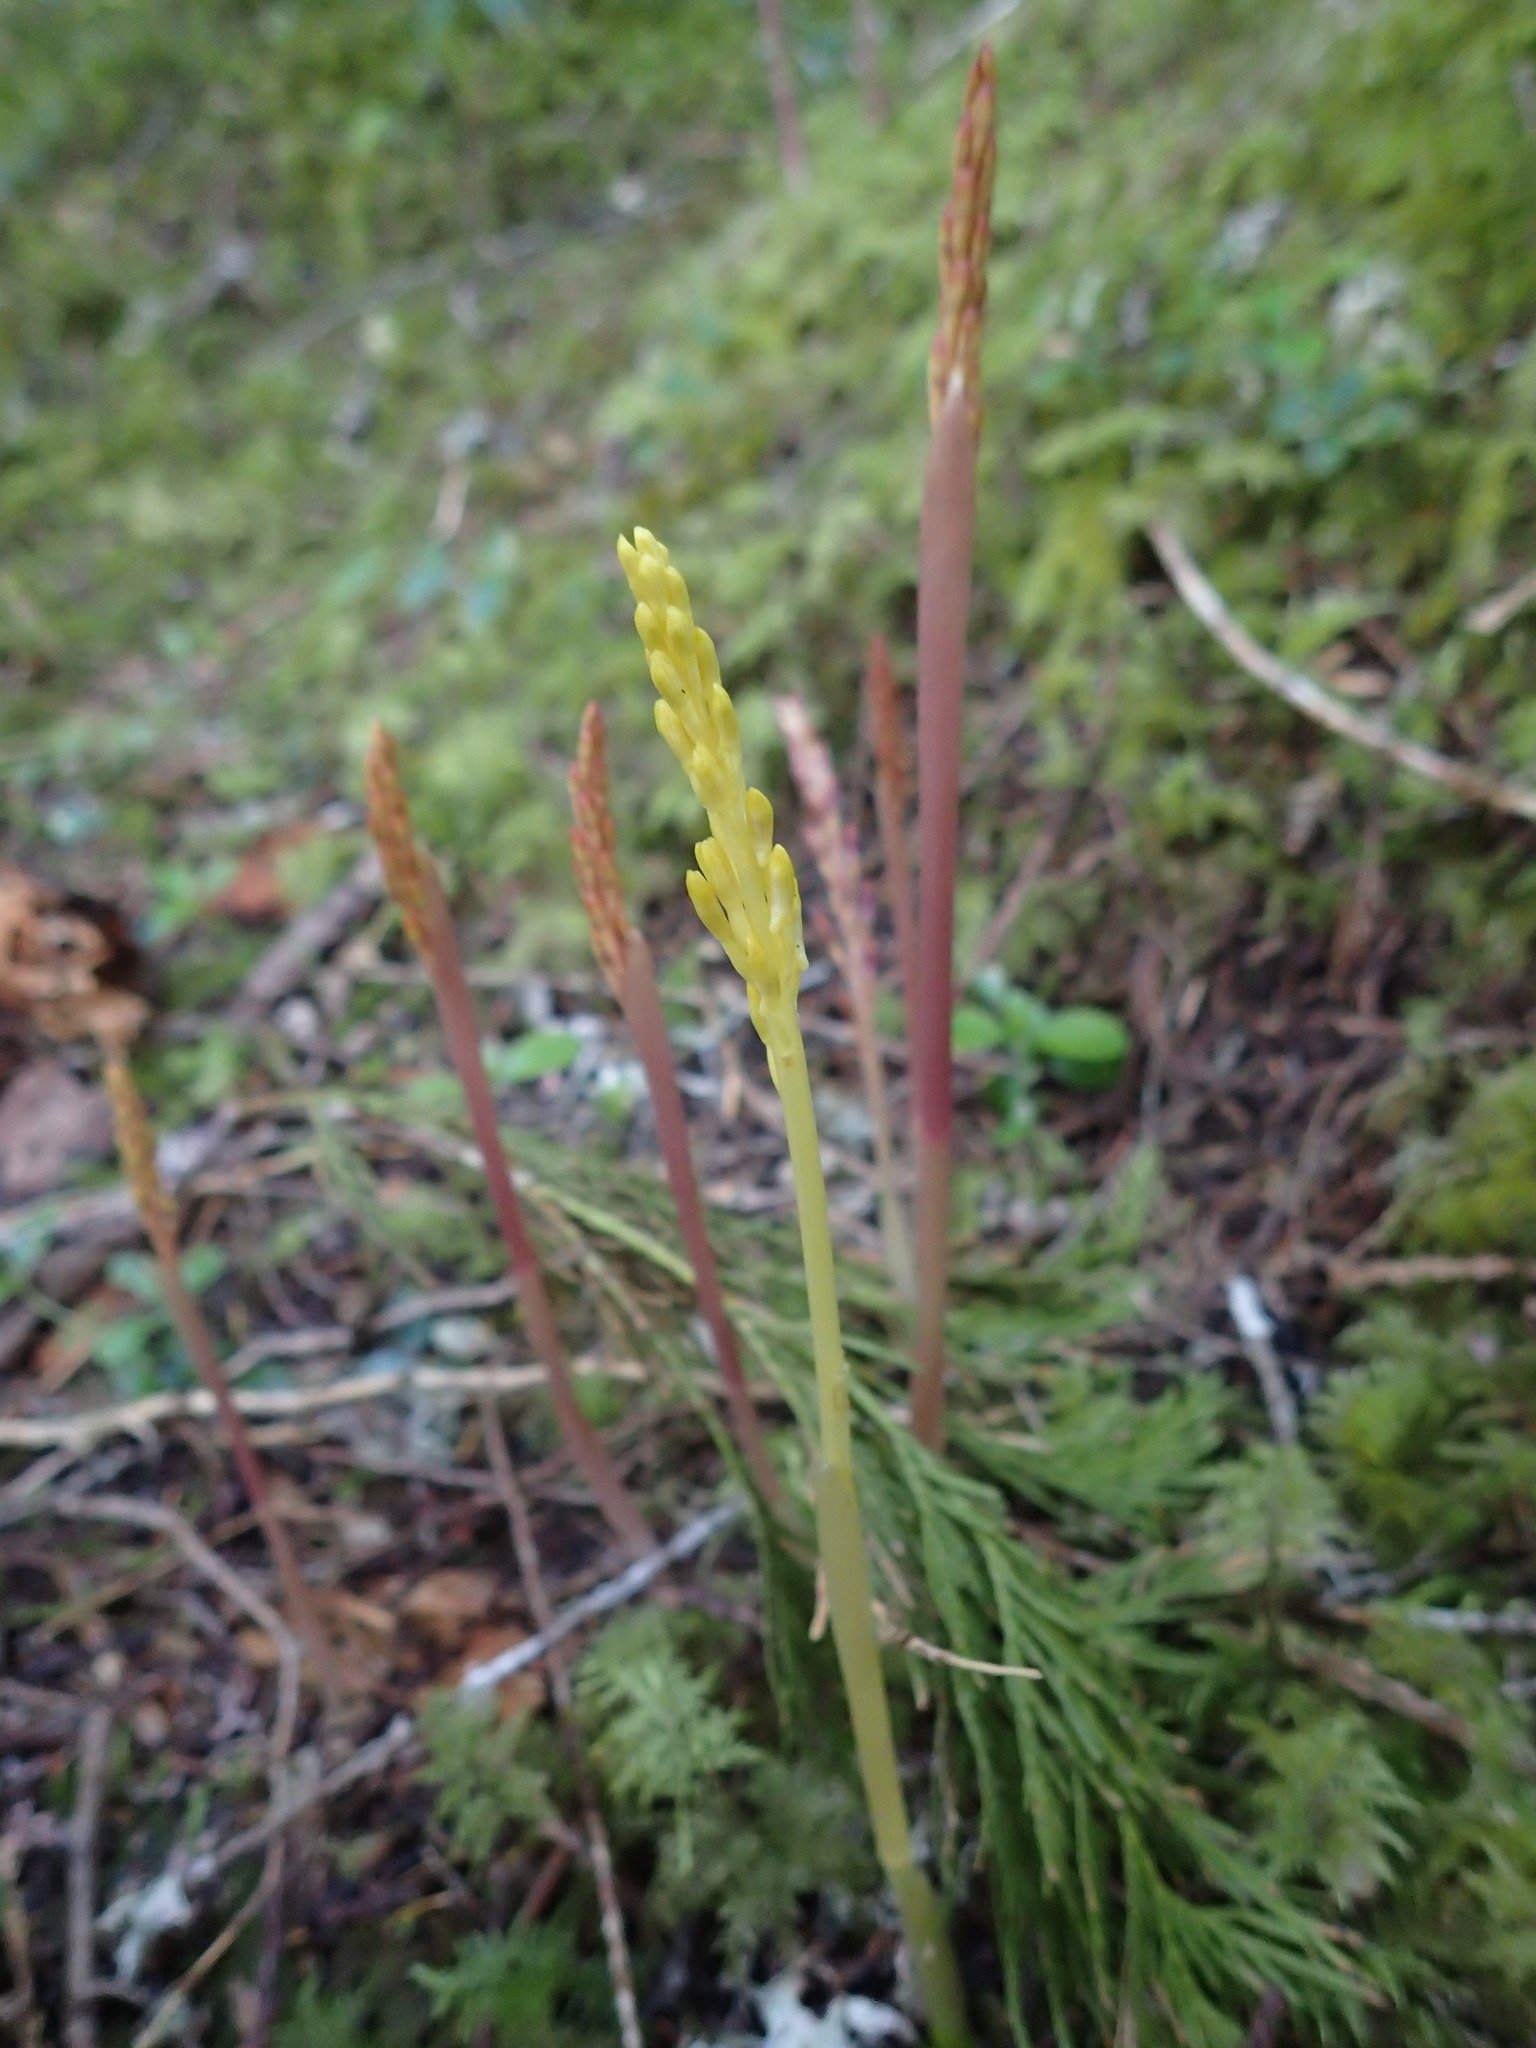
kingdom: Plantae
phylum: Tracheophyta
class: Liliopsida
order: Asparagales
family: Orchidaceae
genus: Corallorhiza
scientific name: Corallorhiza mertensiana
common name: Pacific coralroot
